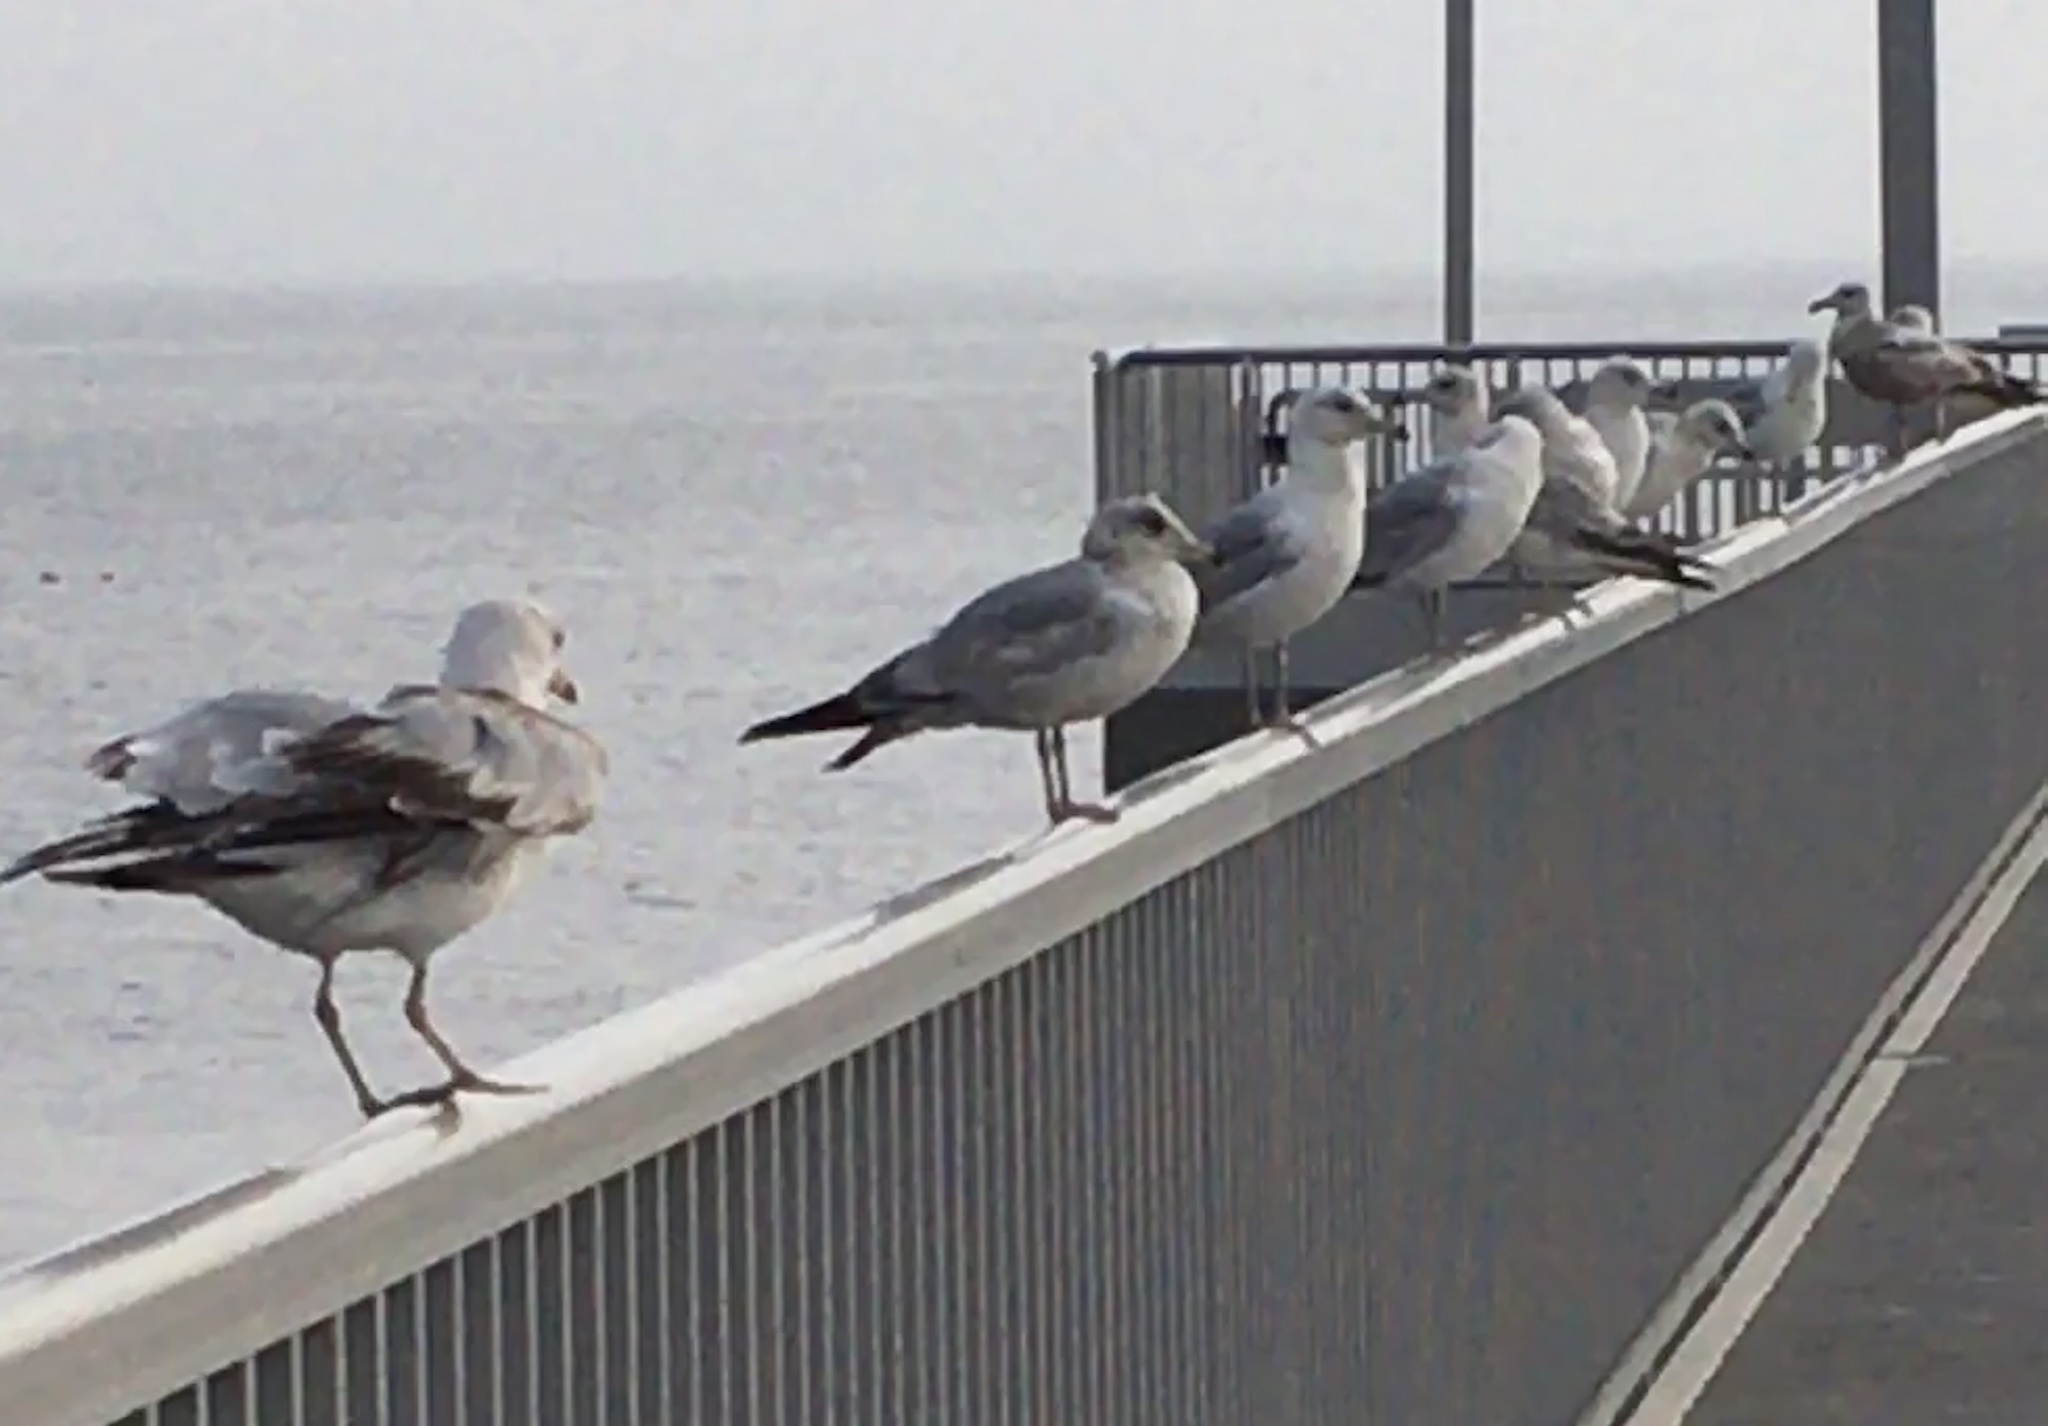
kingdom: Animalia
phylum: Chordata
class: Aves
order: Charadriiformes
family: Laridae
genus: Larus
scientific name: Larus delawarensis
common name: Ring-billed gull
